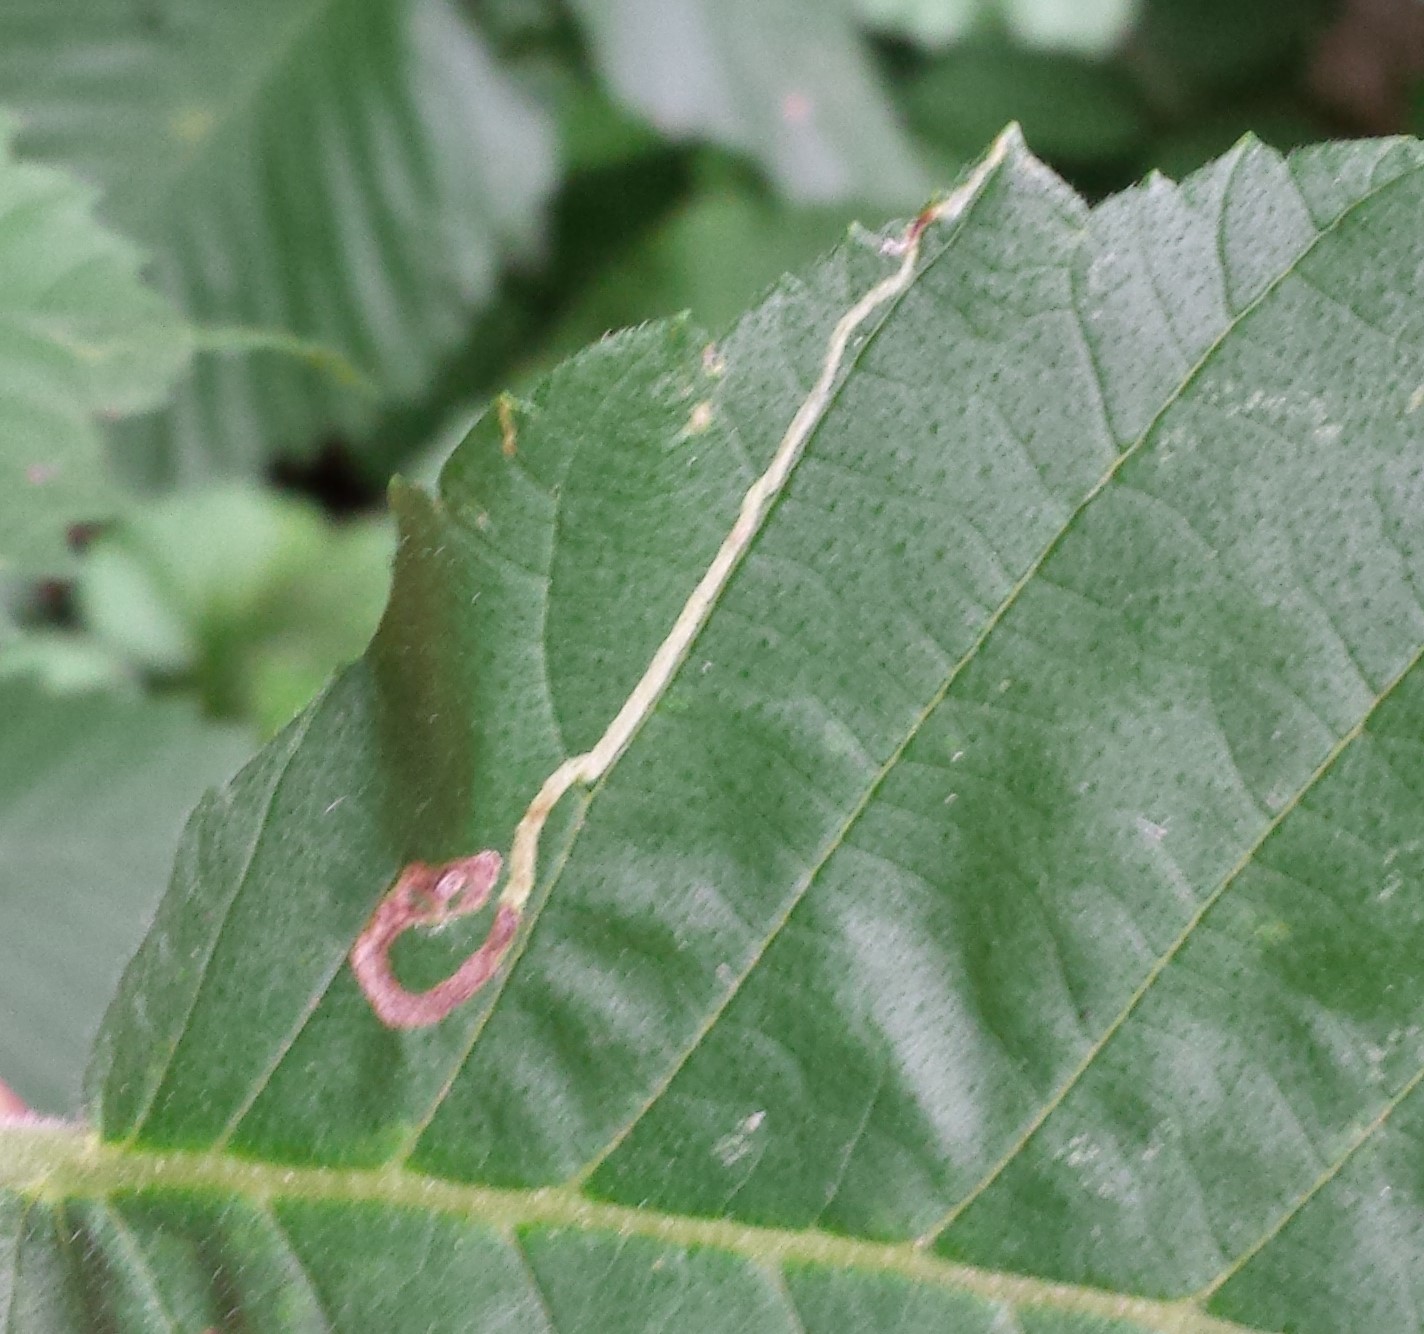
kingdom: Animalia
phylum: Arthropoda
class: Insecta
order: Diptera
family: Agromyzidae
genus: Agromyza
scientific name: Agromyza aristata
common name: Elm agromyzid leafminer
